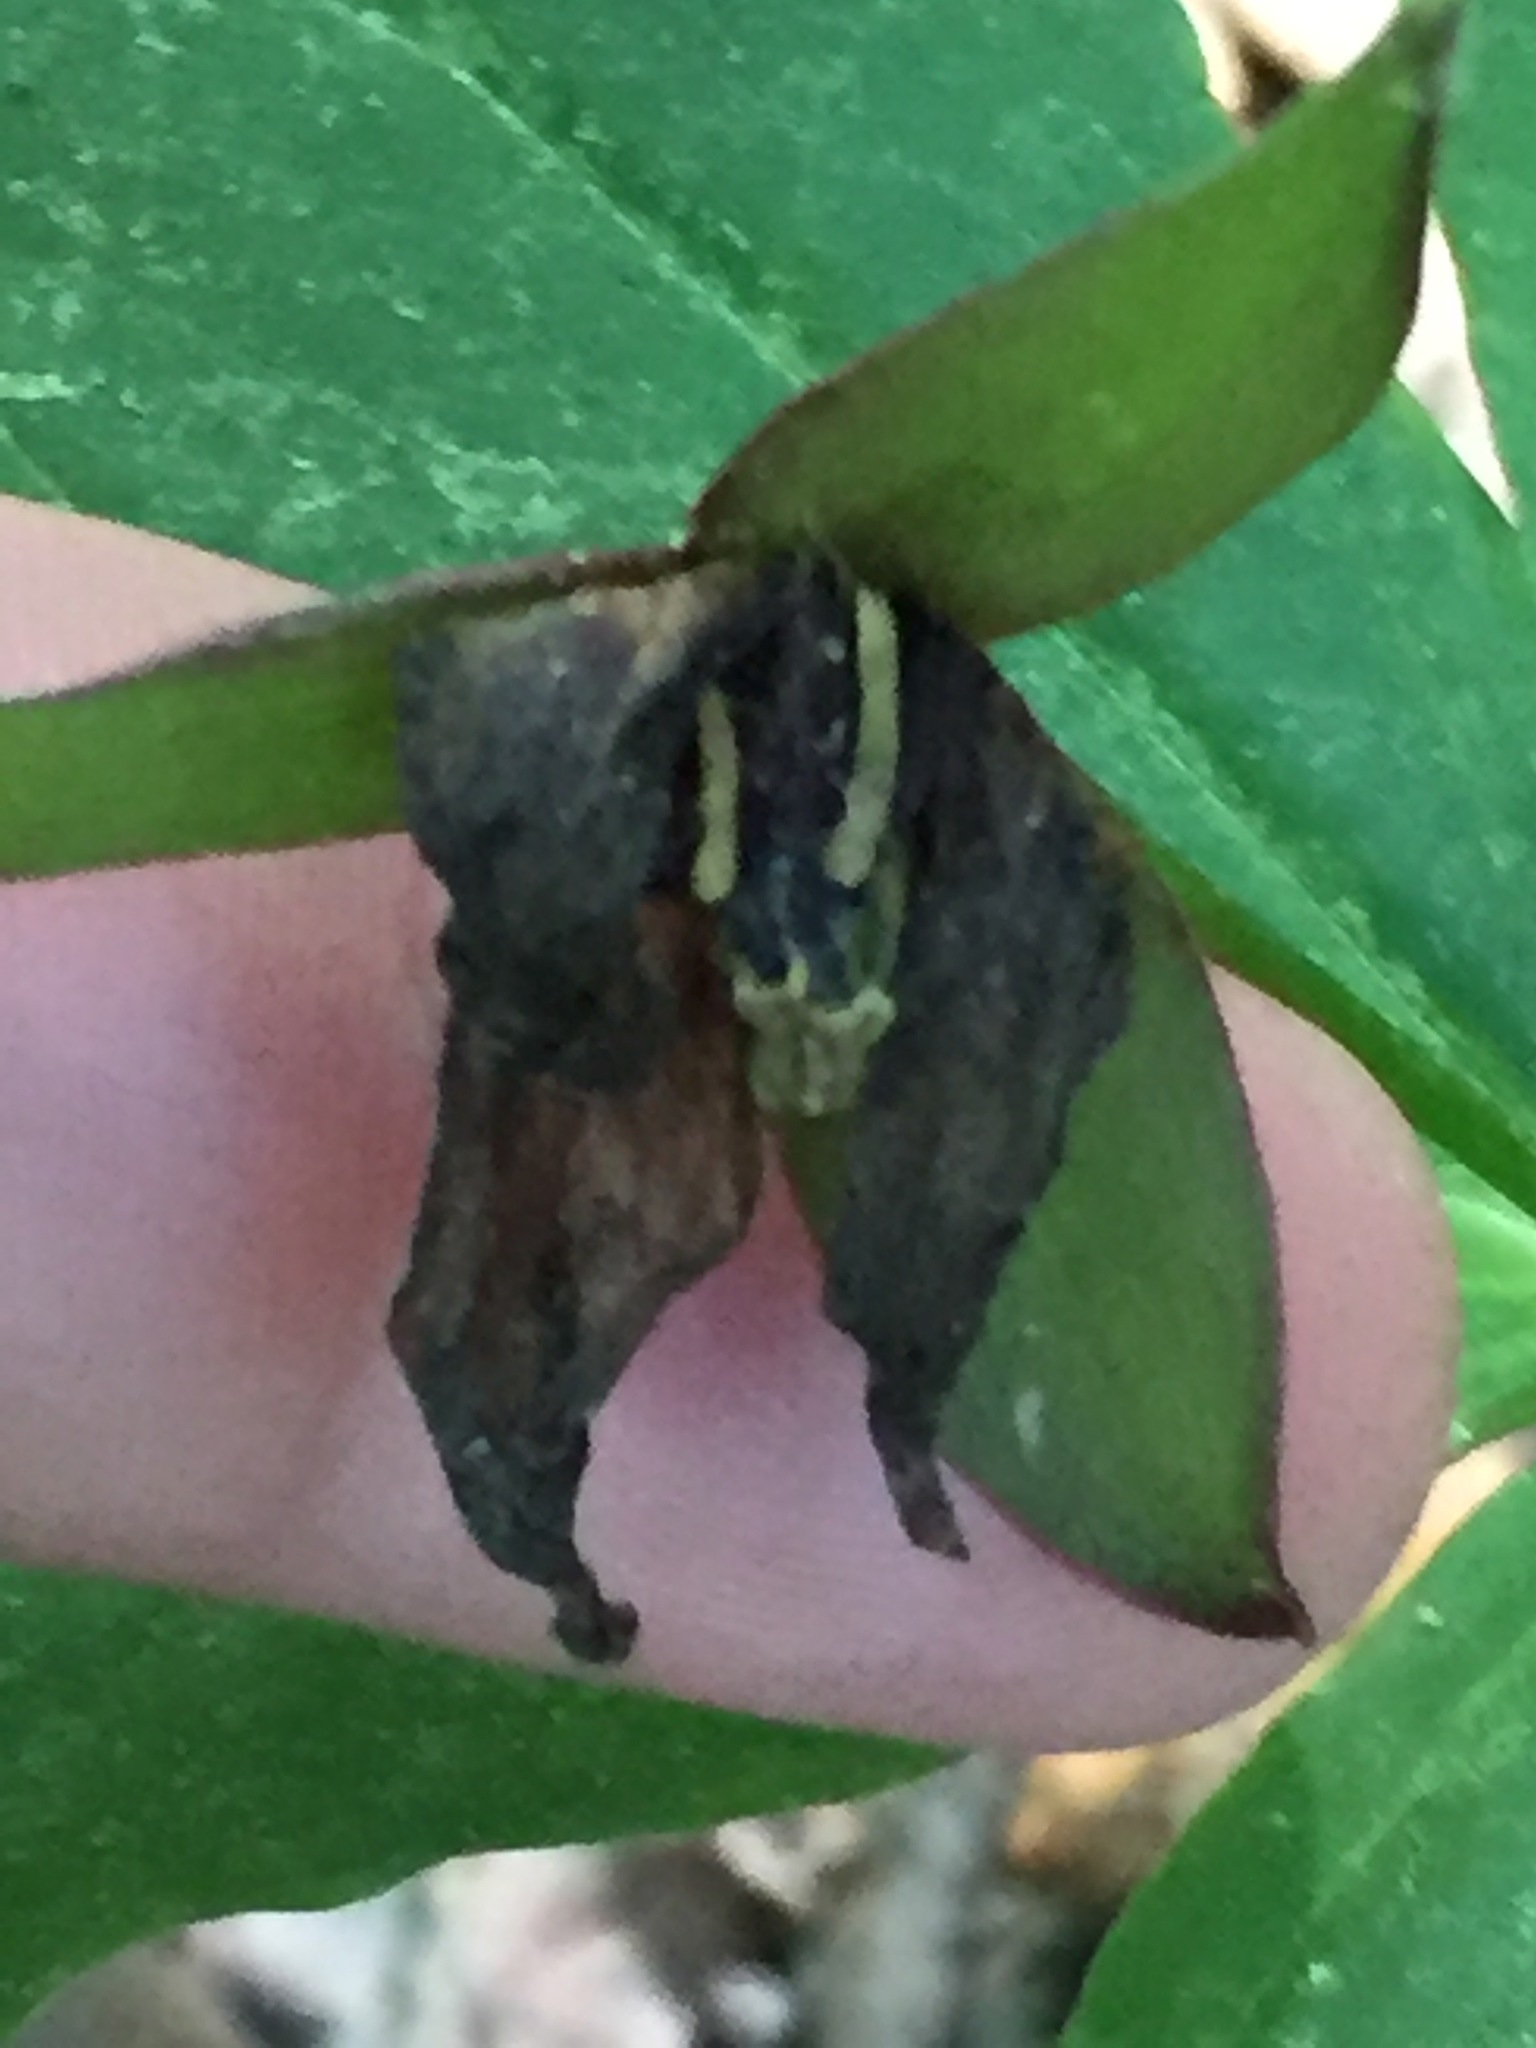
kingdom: Plantae
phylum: Tracheophyta
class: Liliopsida
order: Liliales
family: Melanthiaceae
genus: Trillium
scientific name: Trillium erectum
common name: Purple trillium
